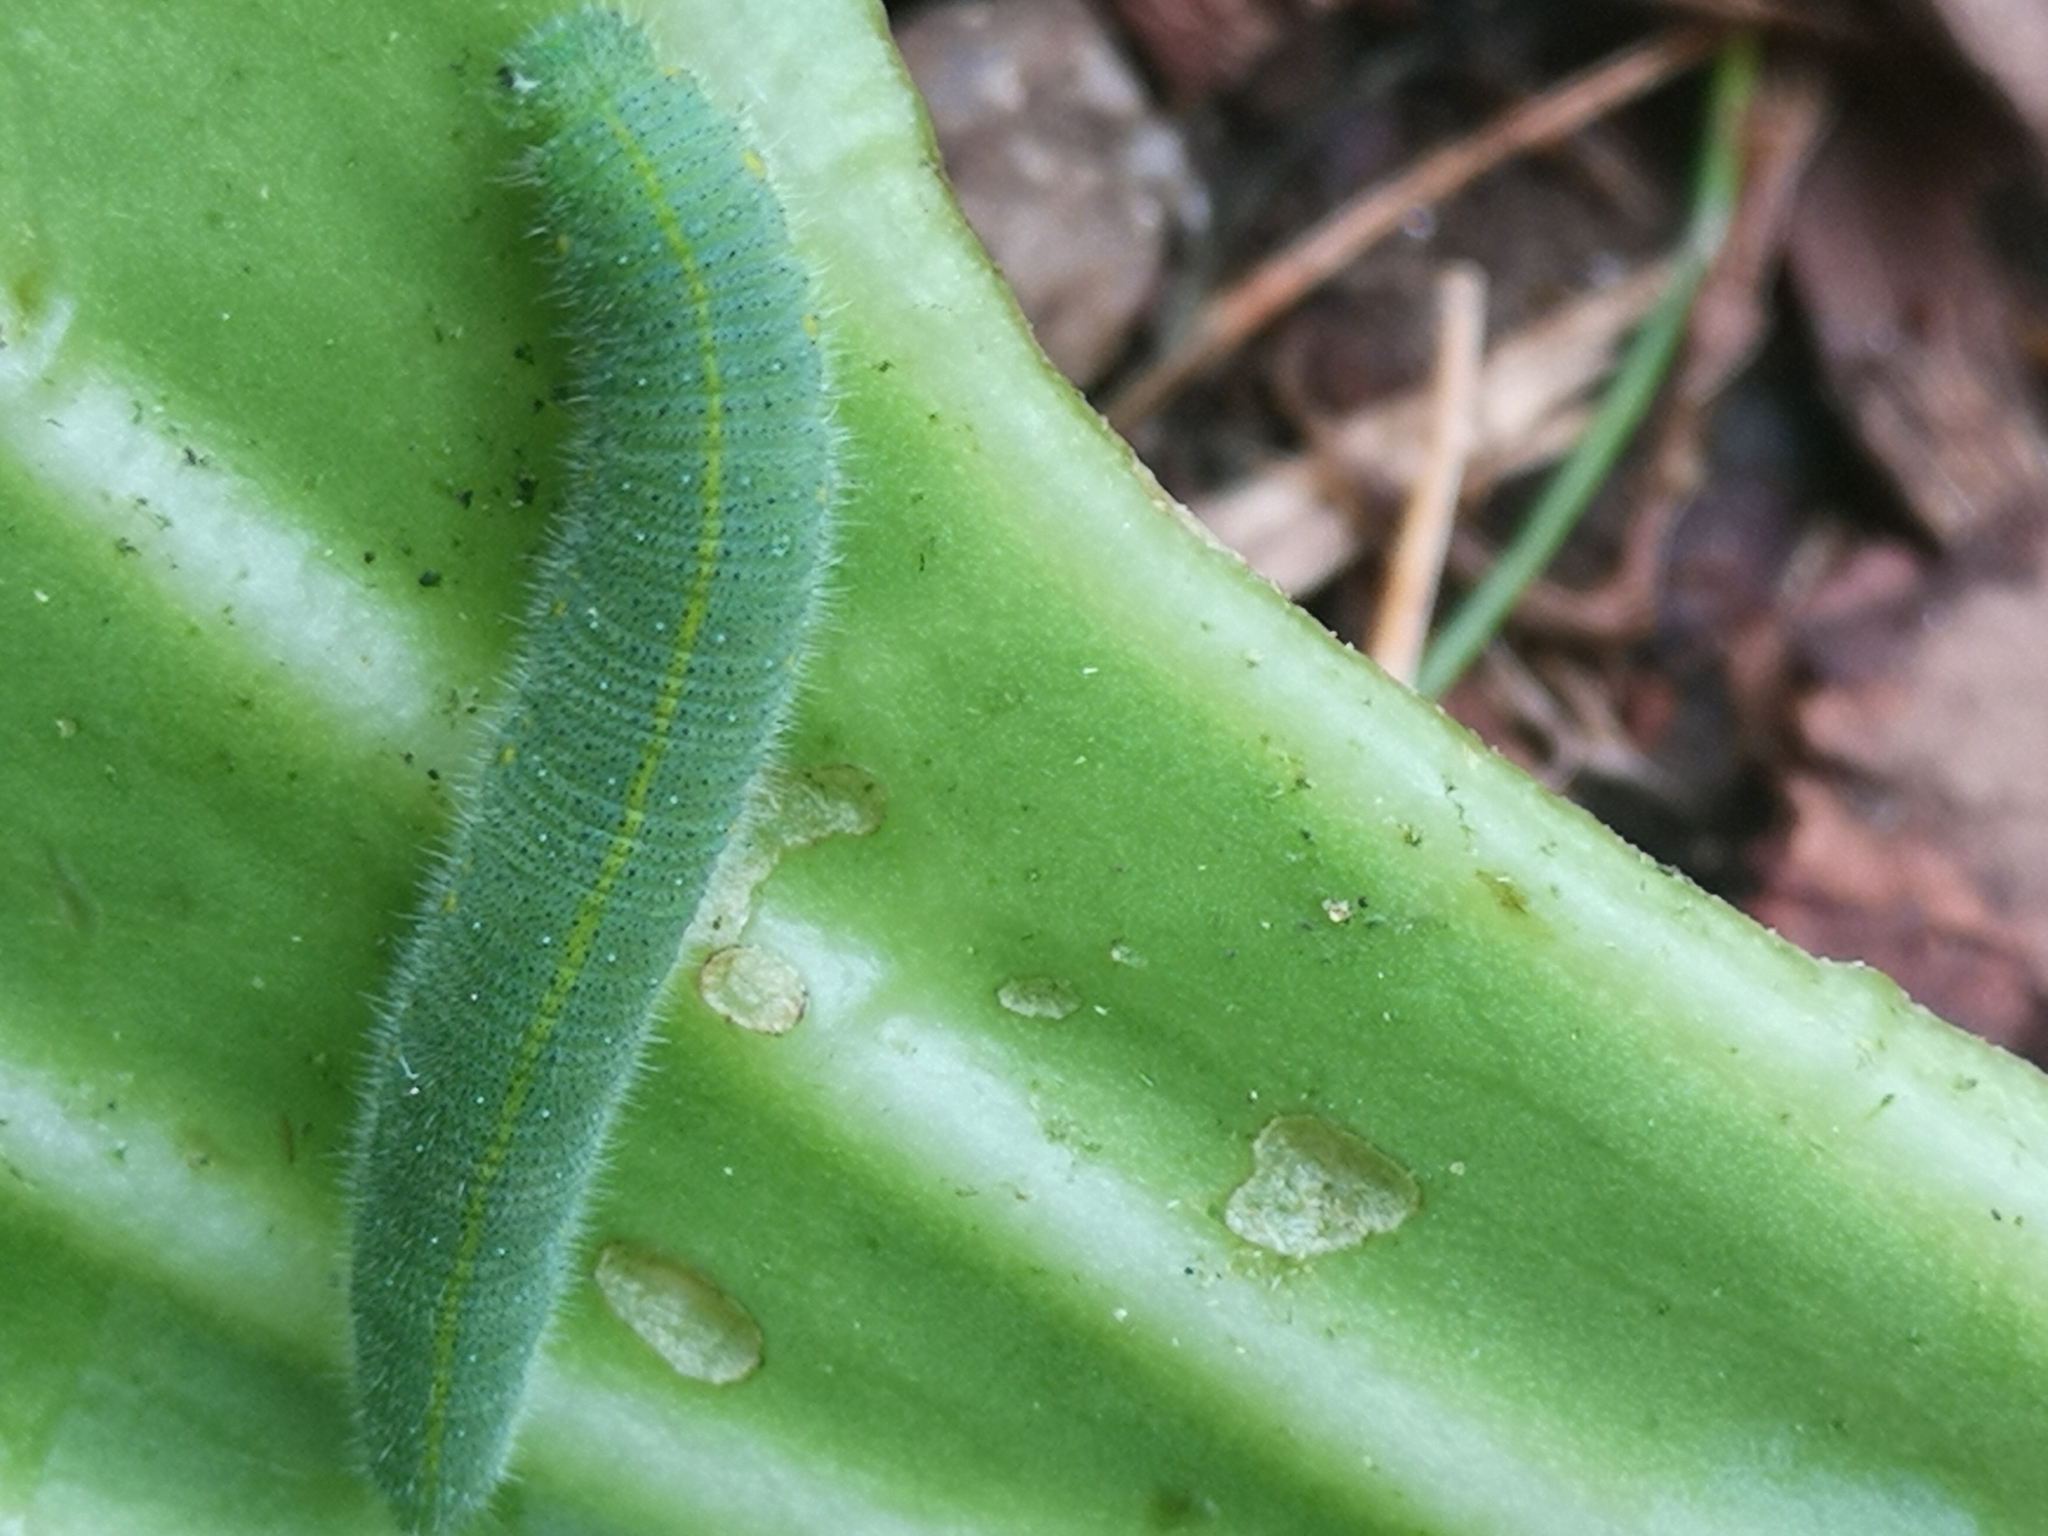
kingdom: Animalia
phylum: Arthropoda
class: Insecta
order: Lepidoptera
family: Pieridae
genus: Pieris
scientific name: Pieris rapae
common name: Small white
